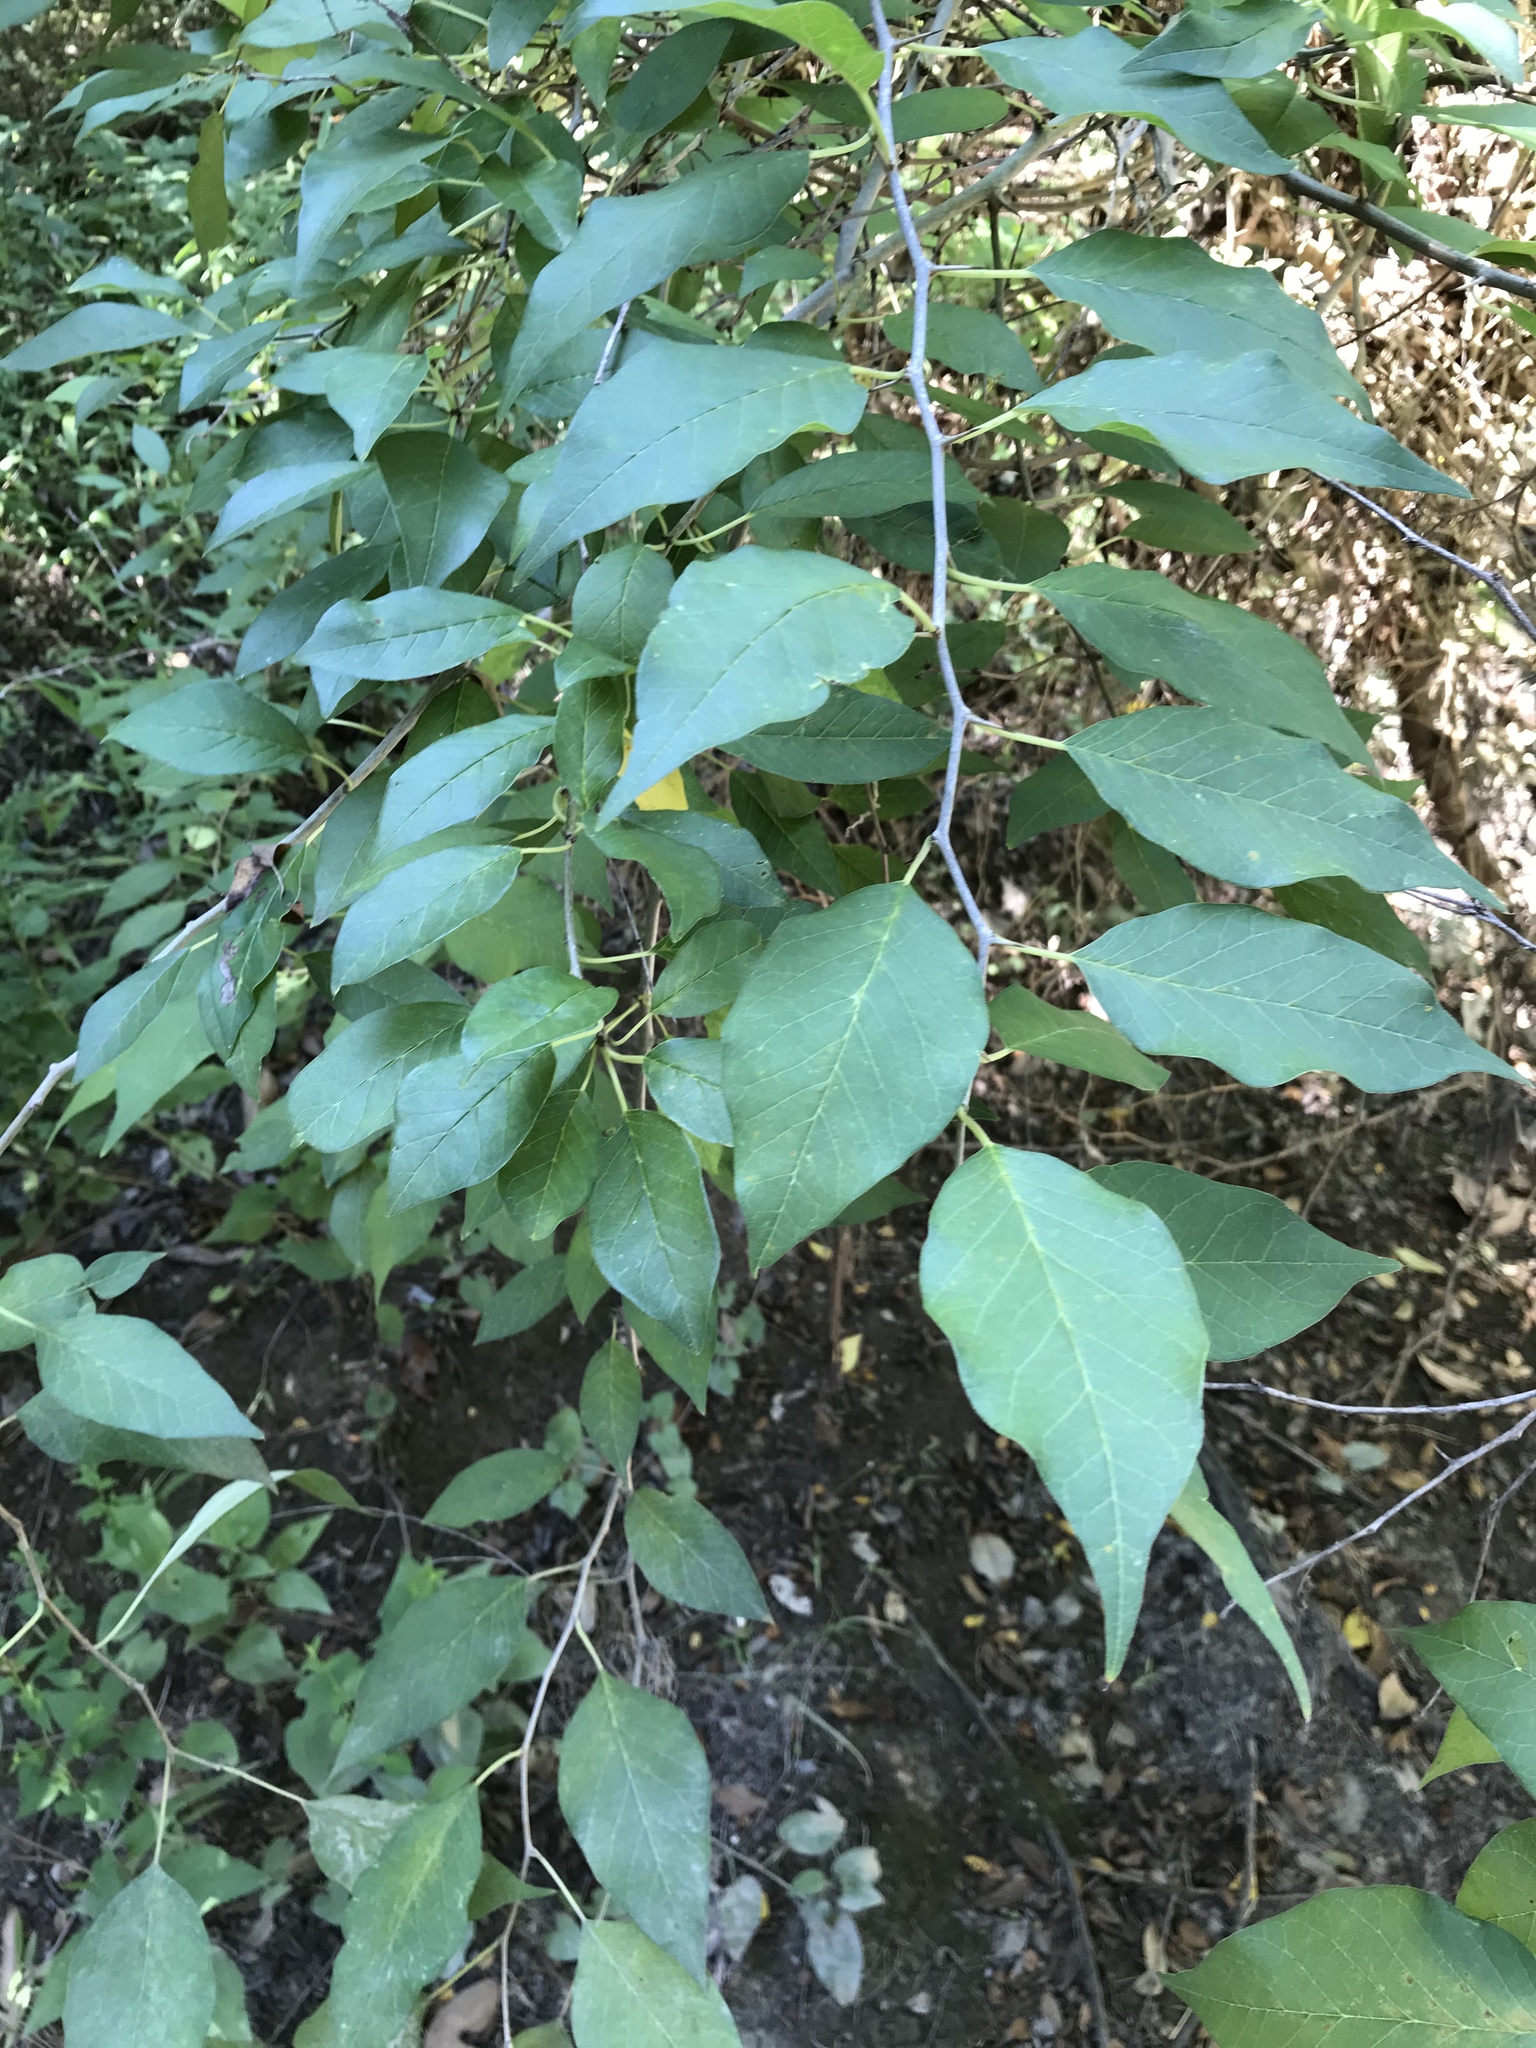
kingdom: Plantae
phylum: Tracheophyta
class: Magnoliopsida
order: Rosales
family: Moraceae
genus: Maclura
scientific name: Maclura pomifera
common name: Osage-orange
